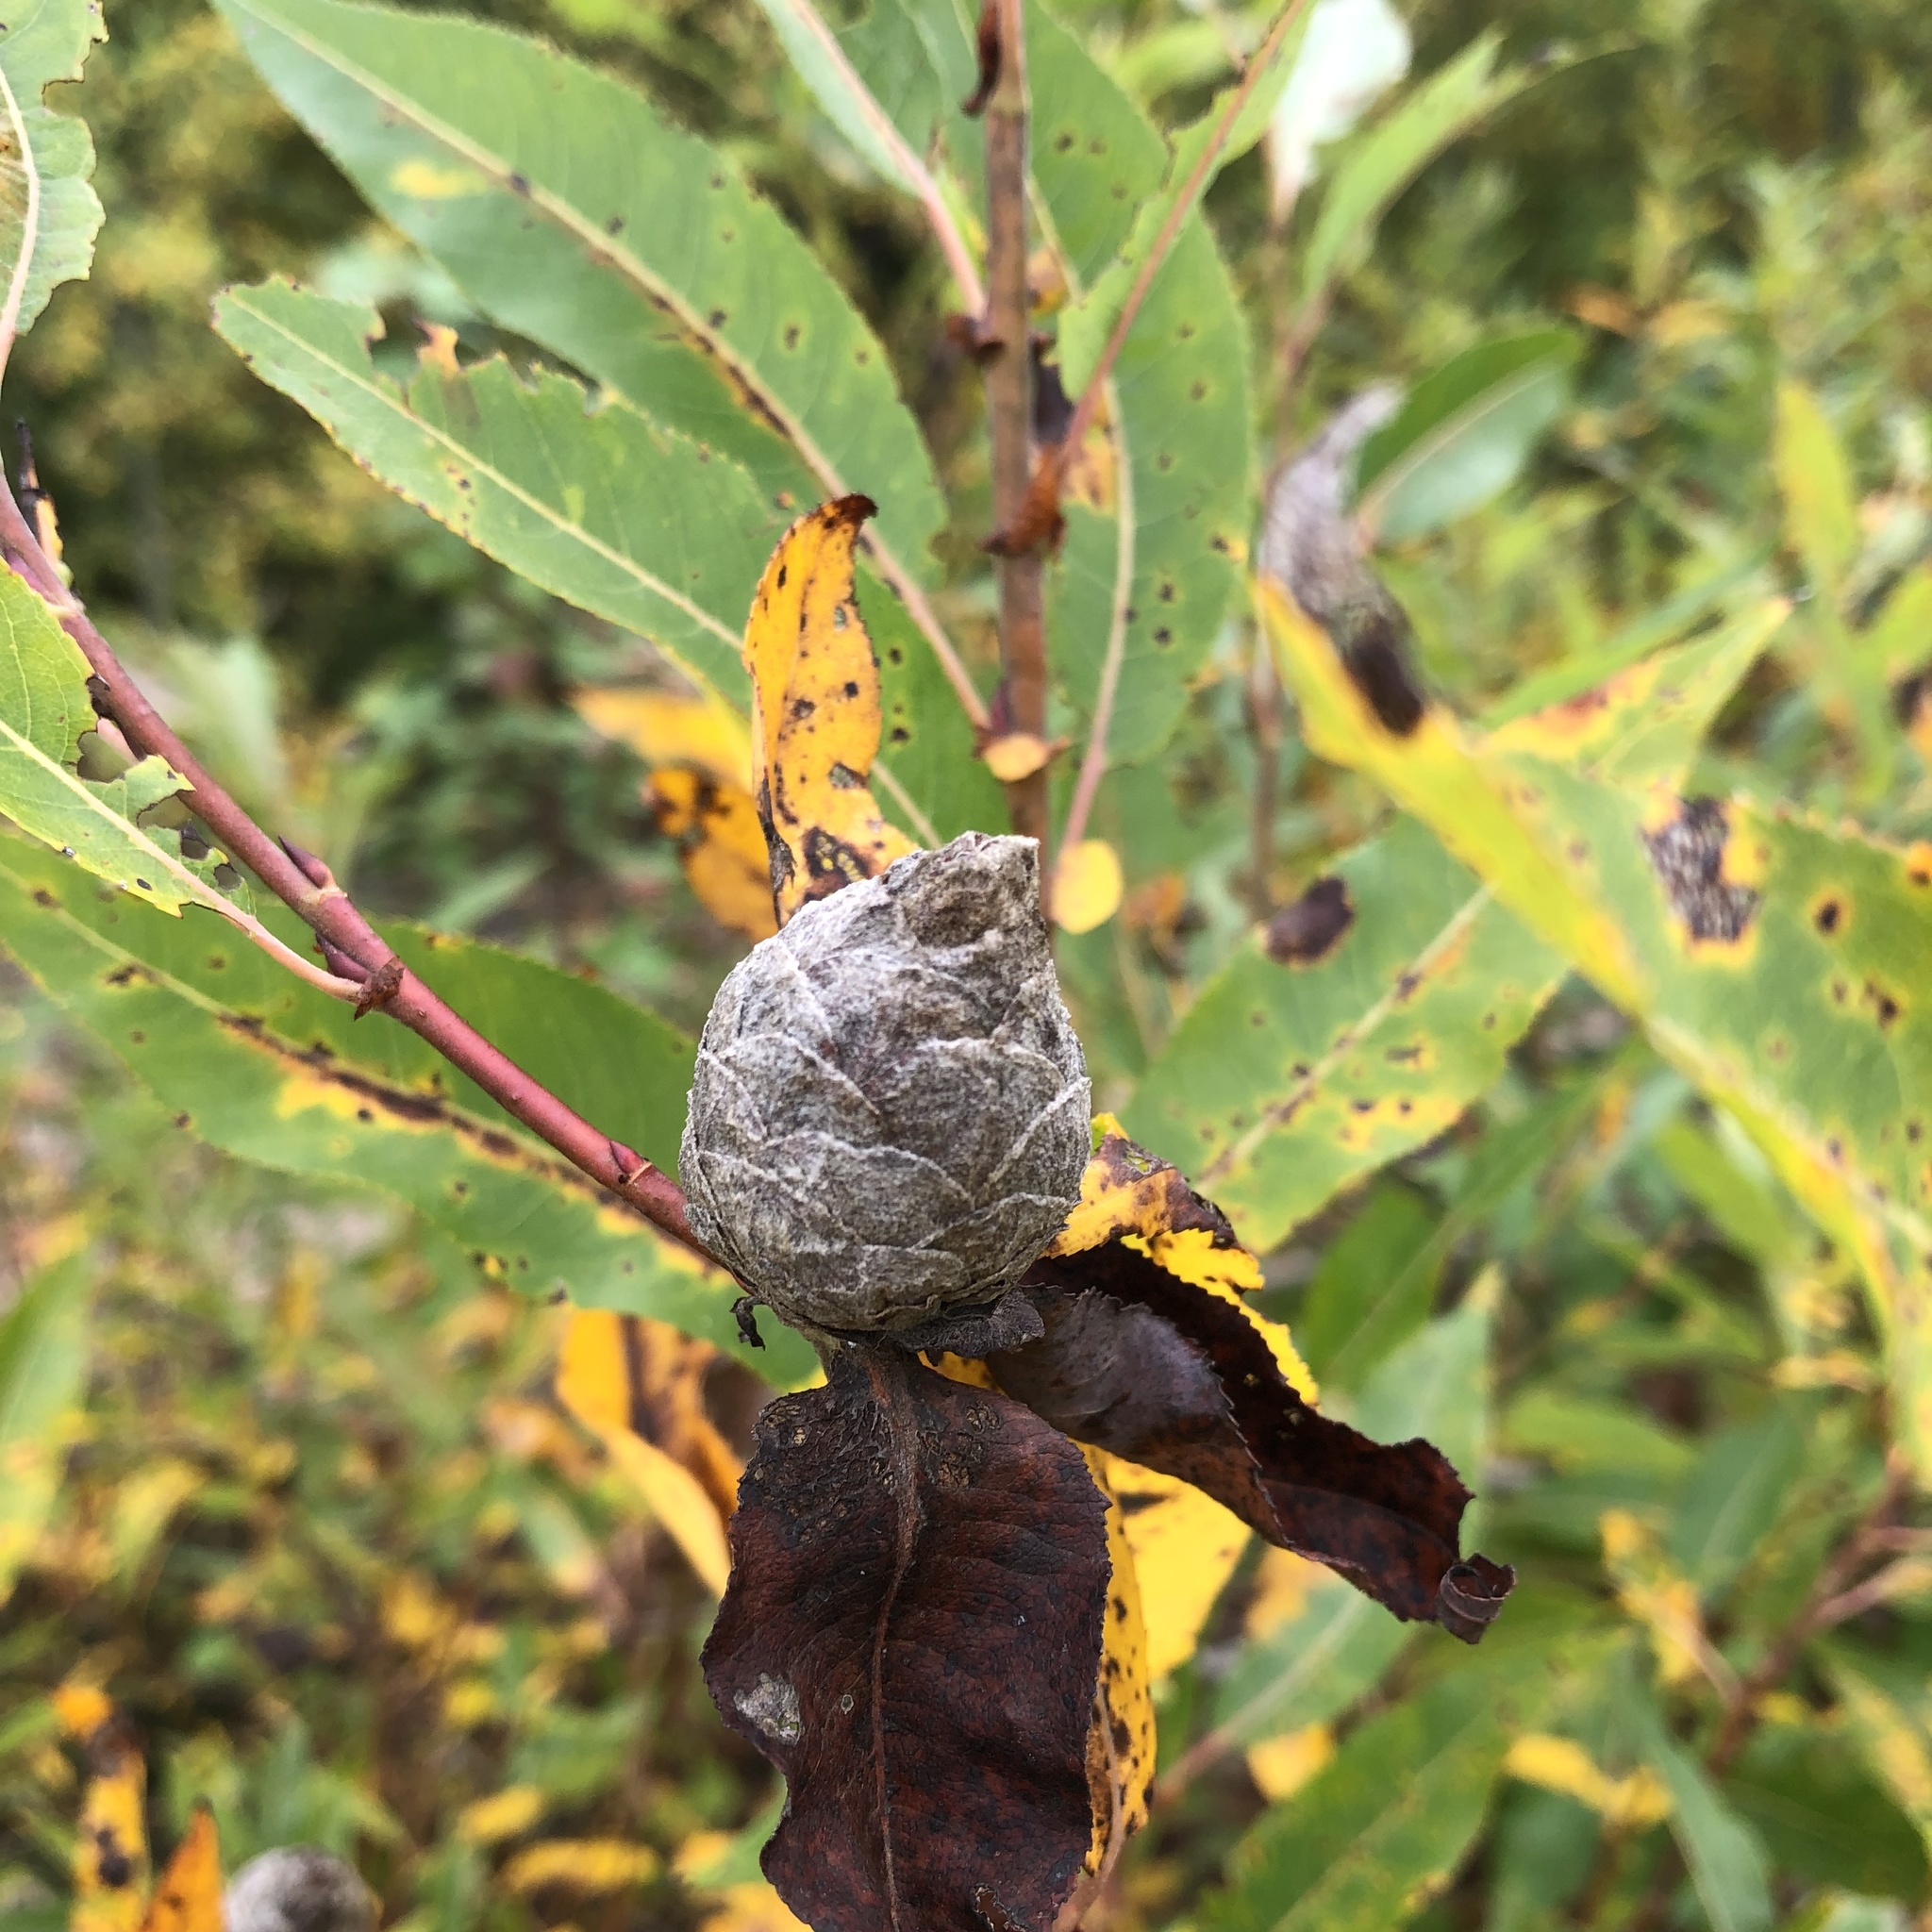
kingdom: Animalia
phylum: Arthropoda
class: Insecta
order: Diptera
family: Cecidomyiidae
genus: Rabdophaga
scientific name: Rabdophaga strobiloides
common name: Willow pinecone gall midge
